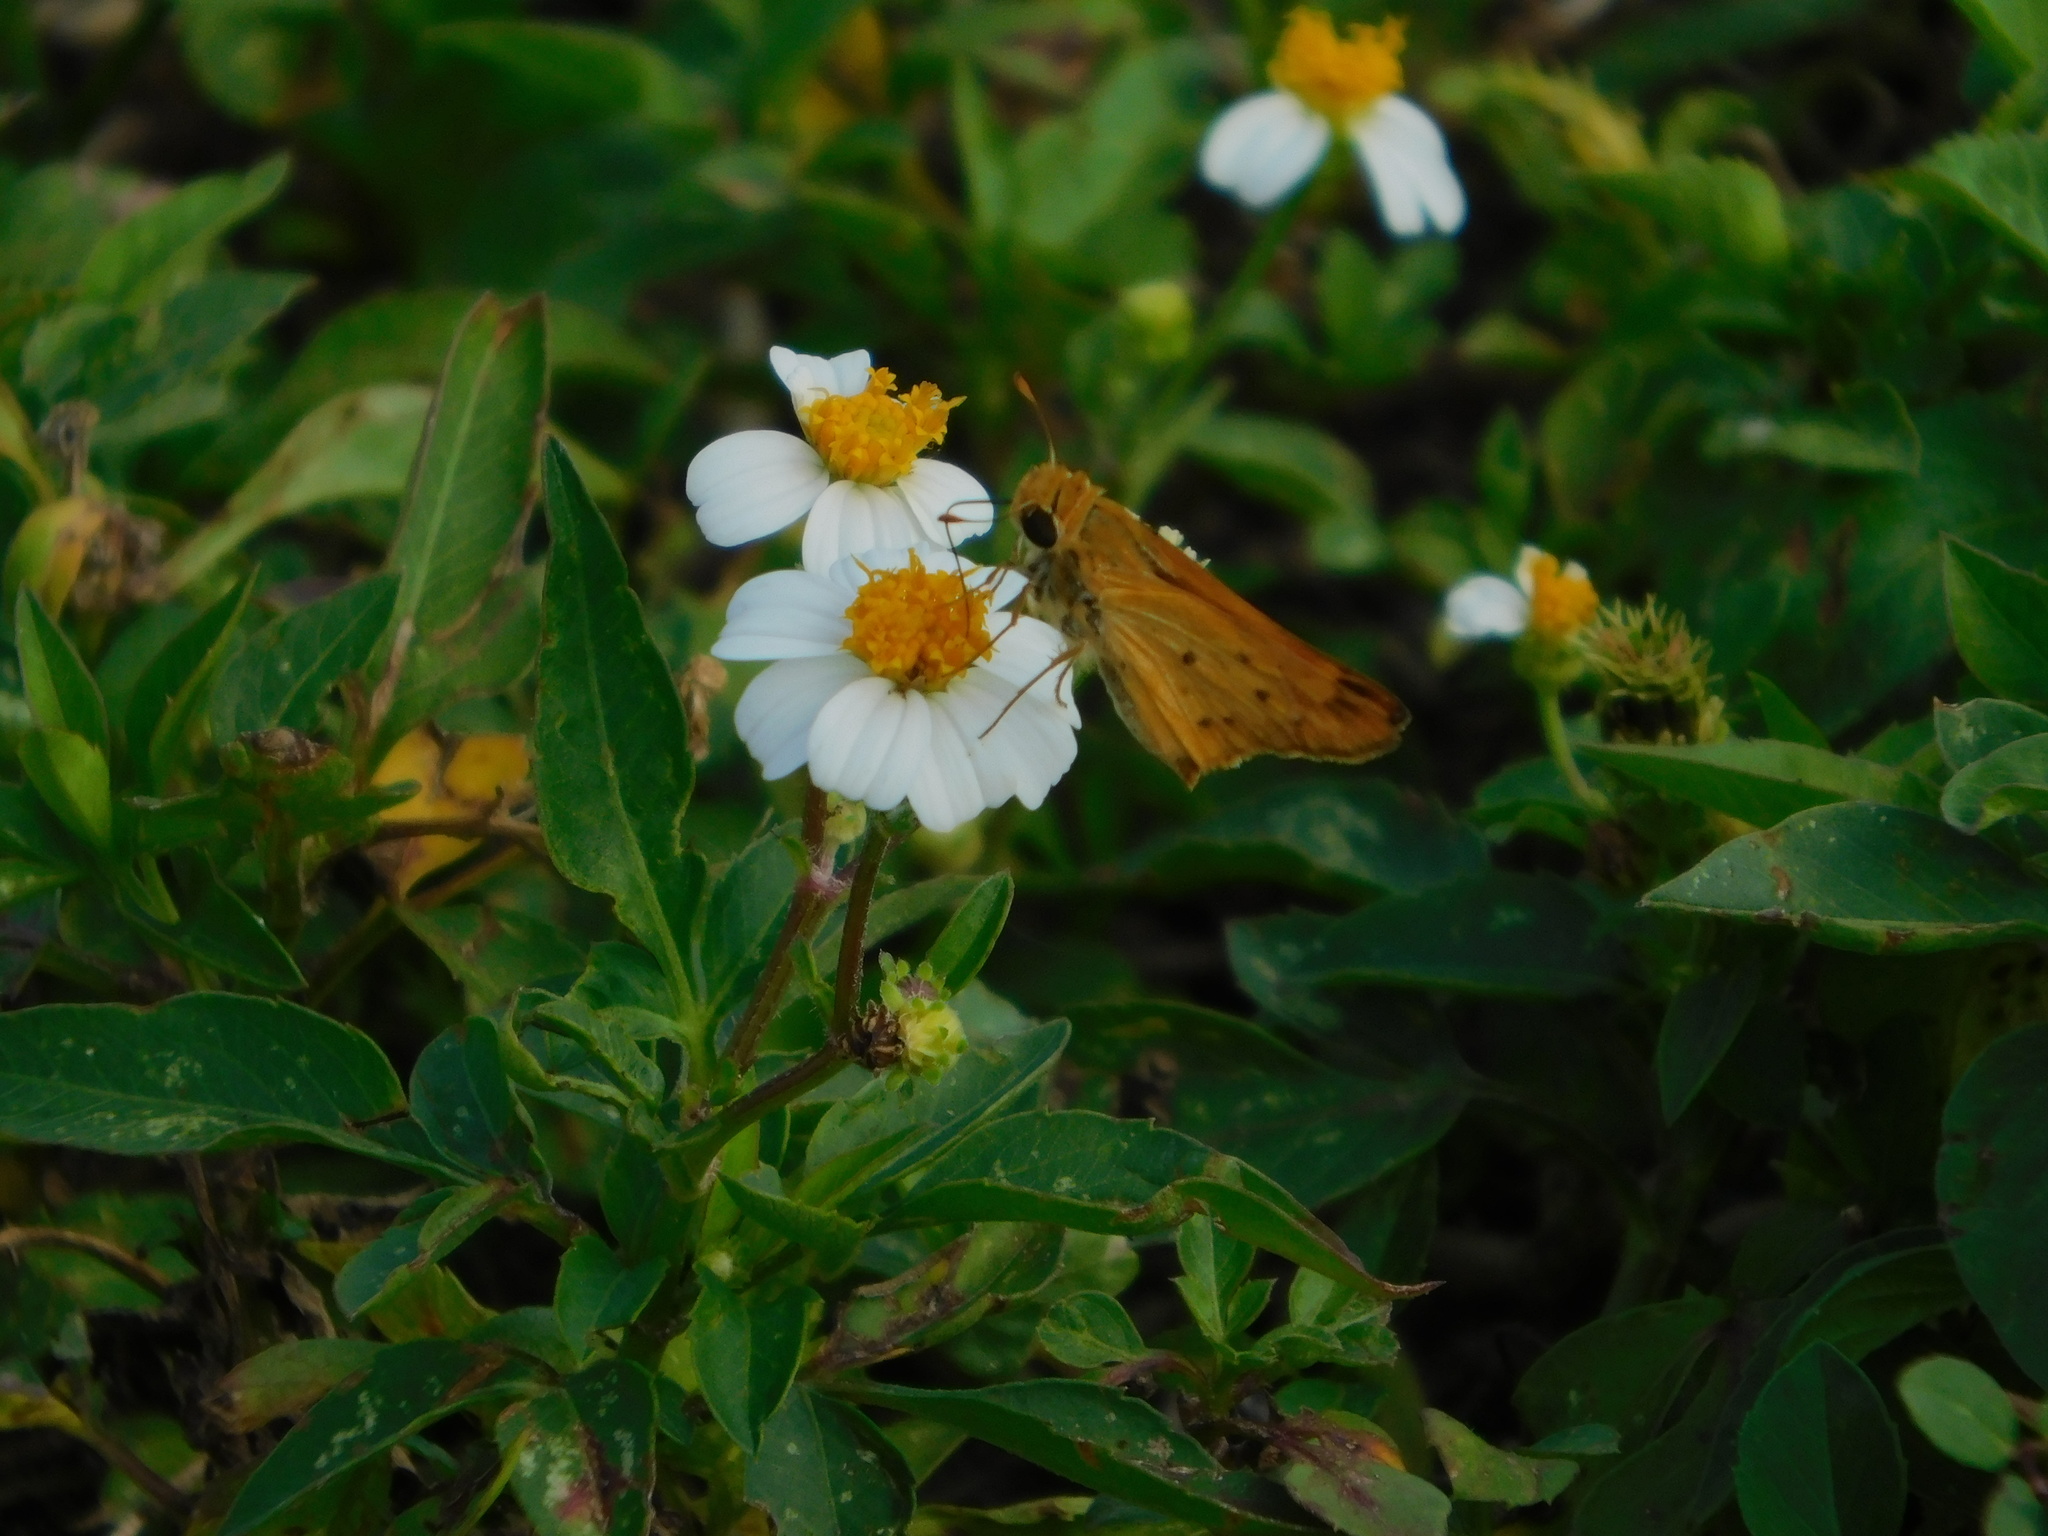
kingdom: Plantae
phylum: Tracheophyta
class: Magnoliopsida
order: Asterales
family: Asteraceae
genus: Bidens
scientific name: Bidens alba
